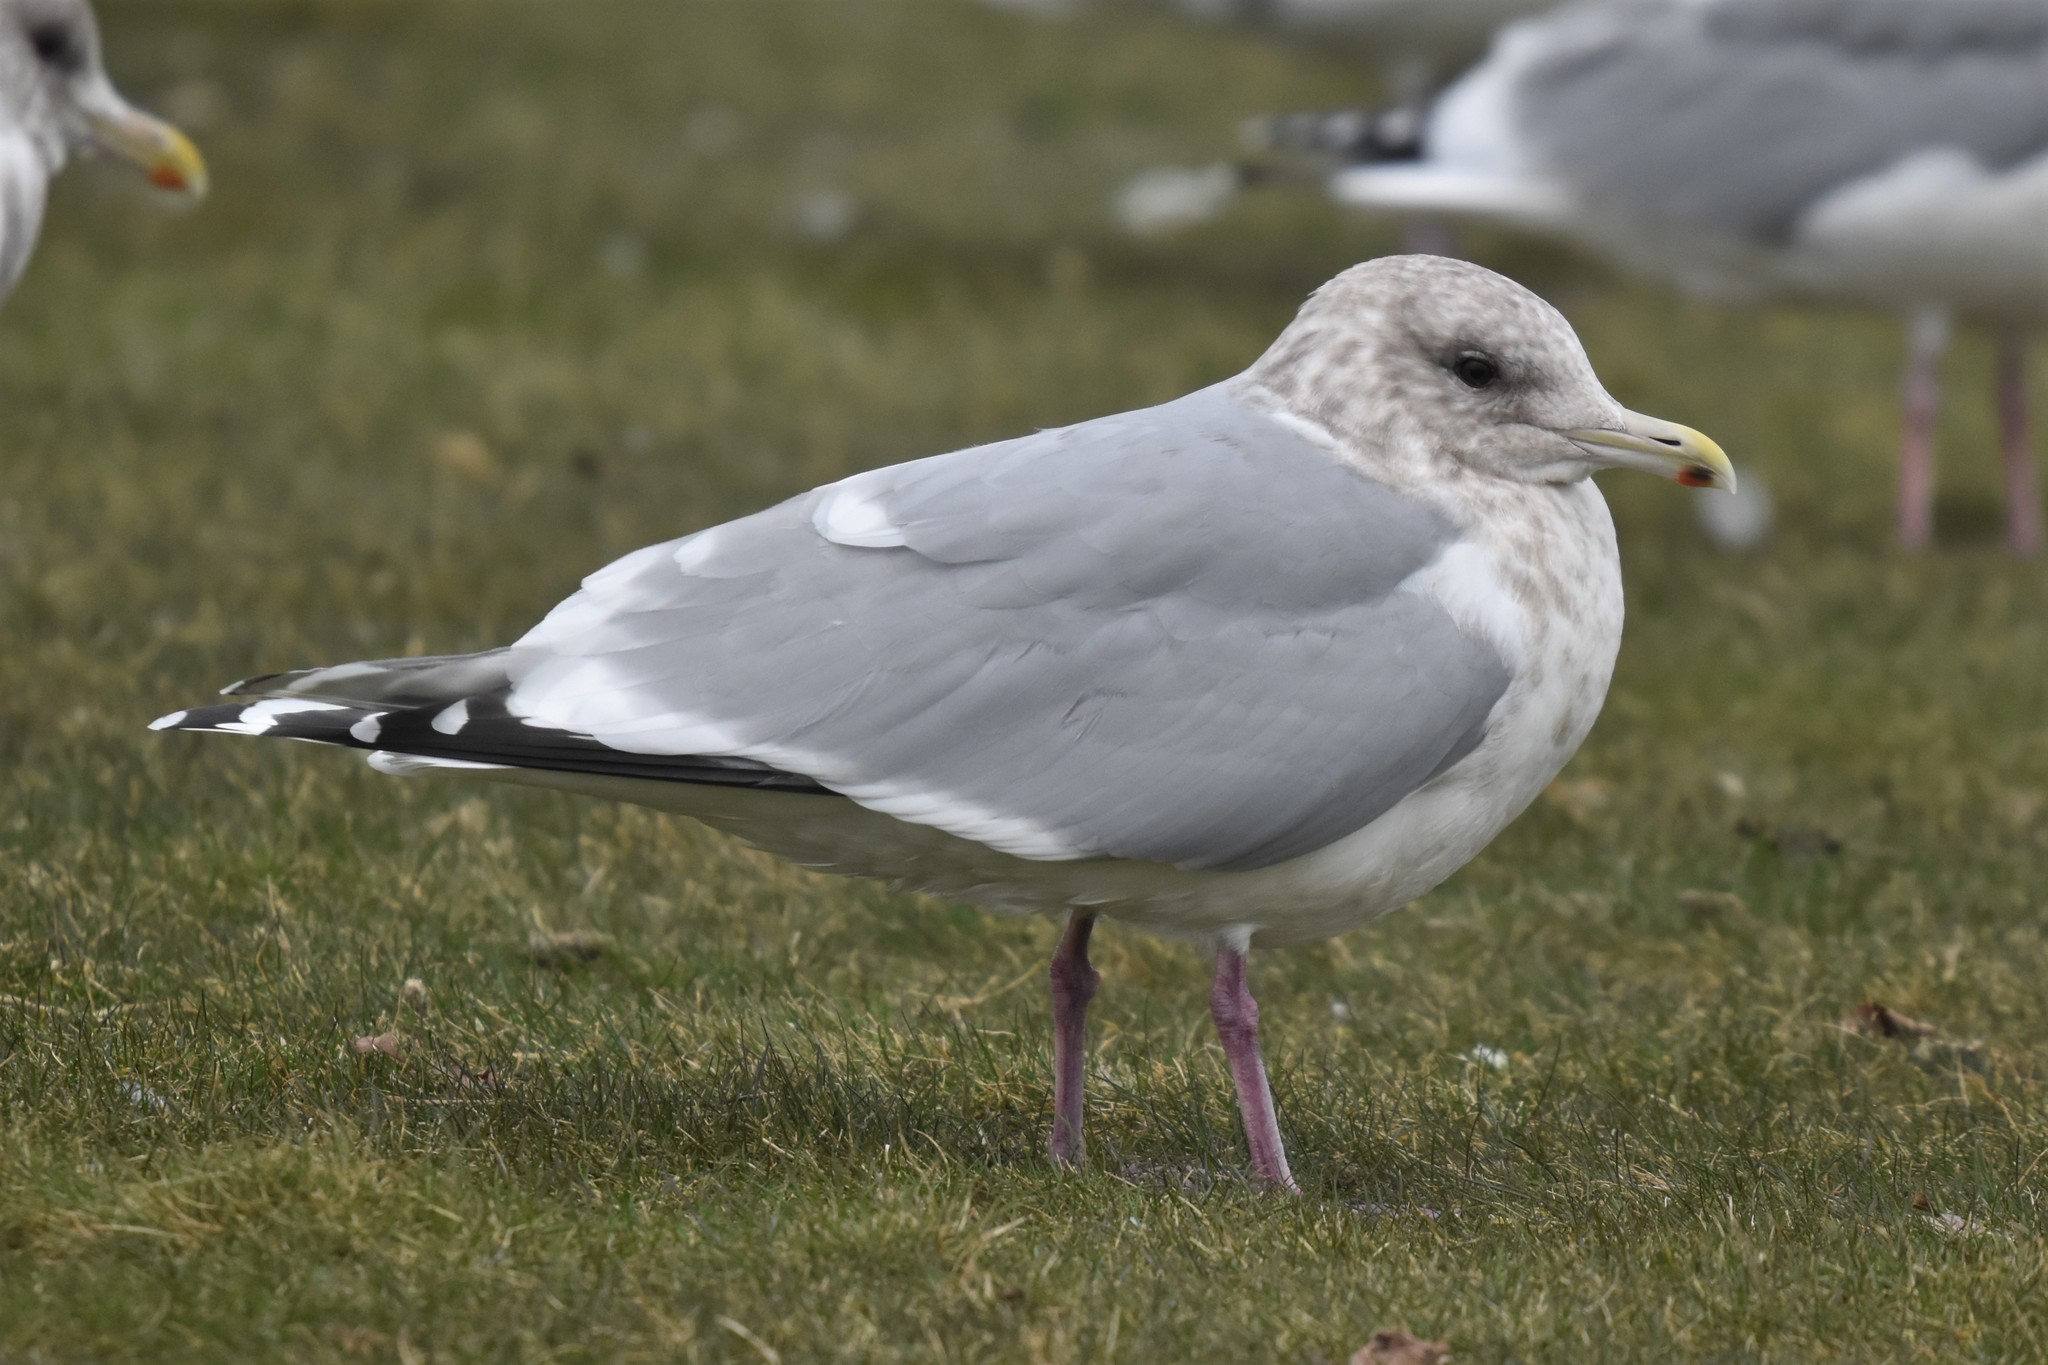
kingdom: Animalia
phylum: Chordata
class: Aves
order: Charadriiformes
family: Laridae
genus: Larus
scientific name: Larus glaucoides
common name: Iceland gull
